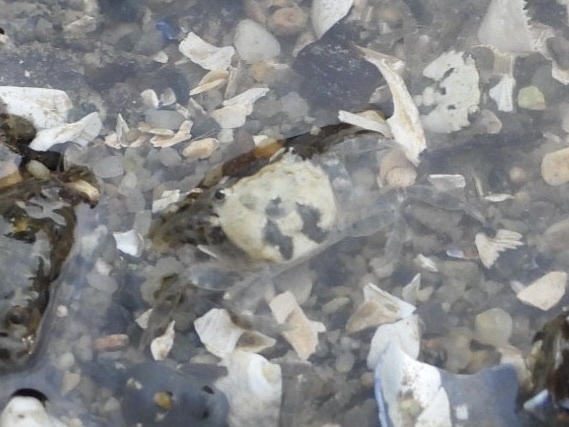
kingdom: Animalia
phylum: Arthropoda
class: Malacostraca
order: Decapoda
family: Varunidae
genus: Hemigrapsus
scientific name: Hemigrapsus oregonensis
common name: Yellow shore crab
